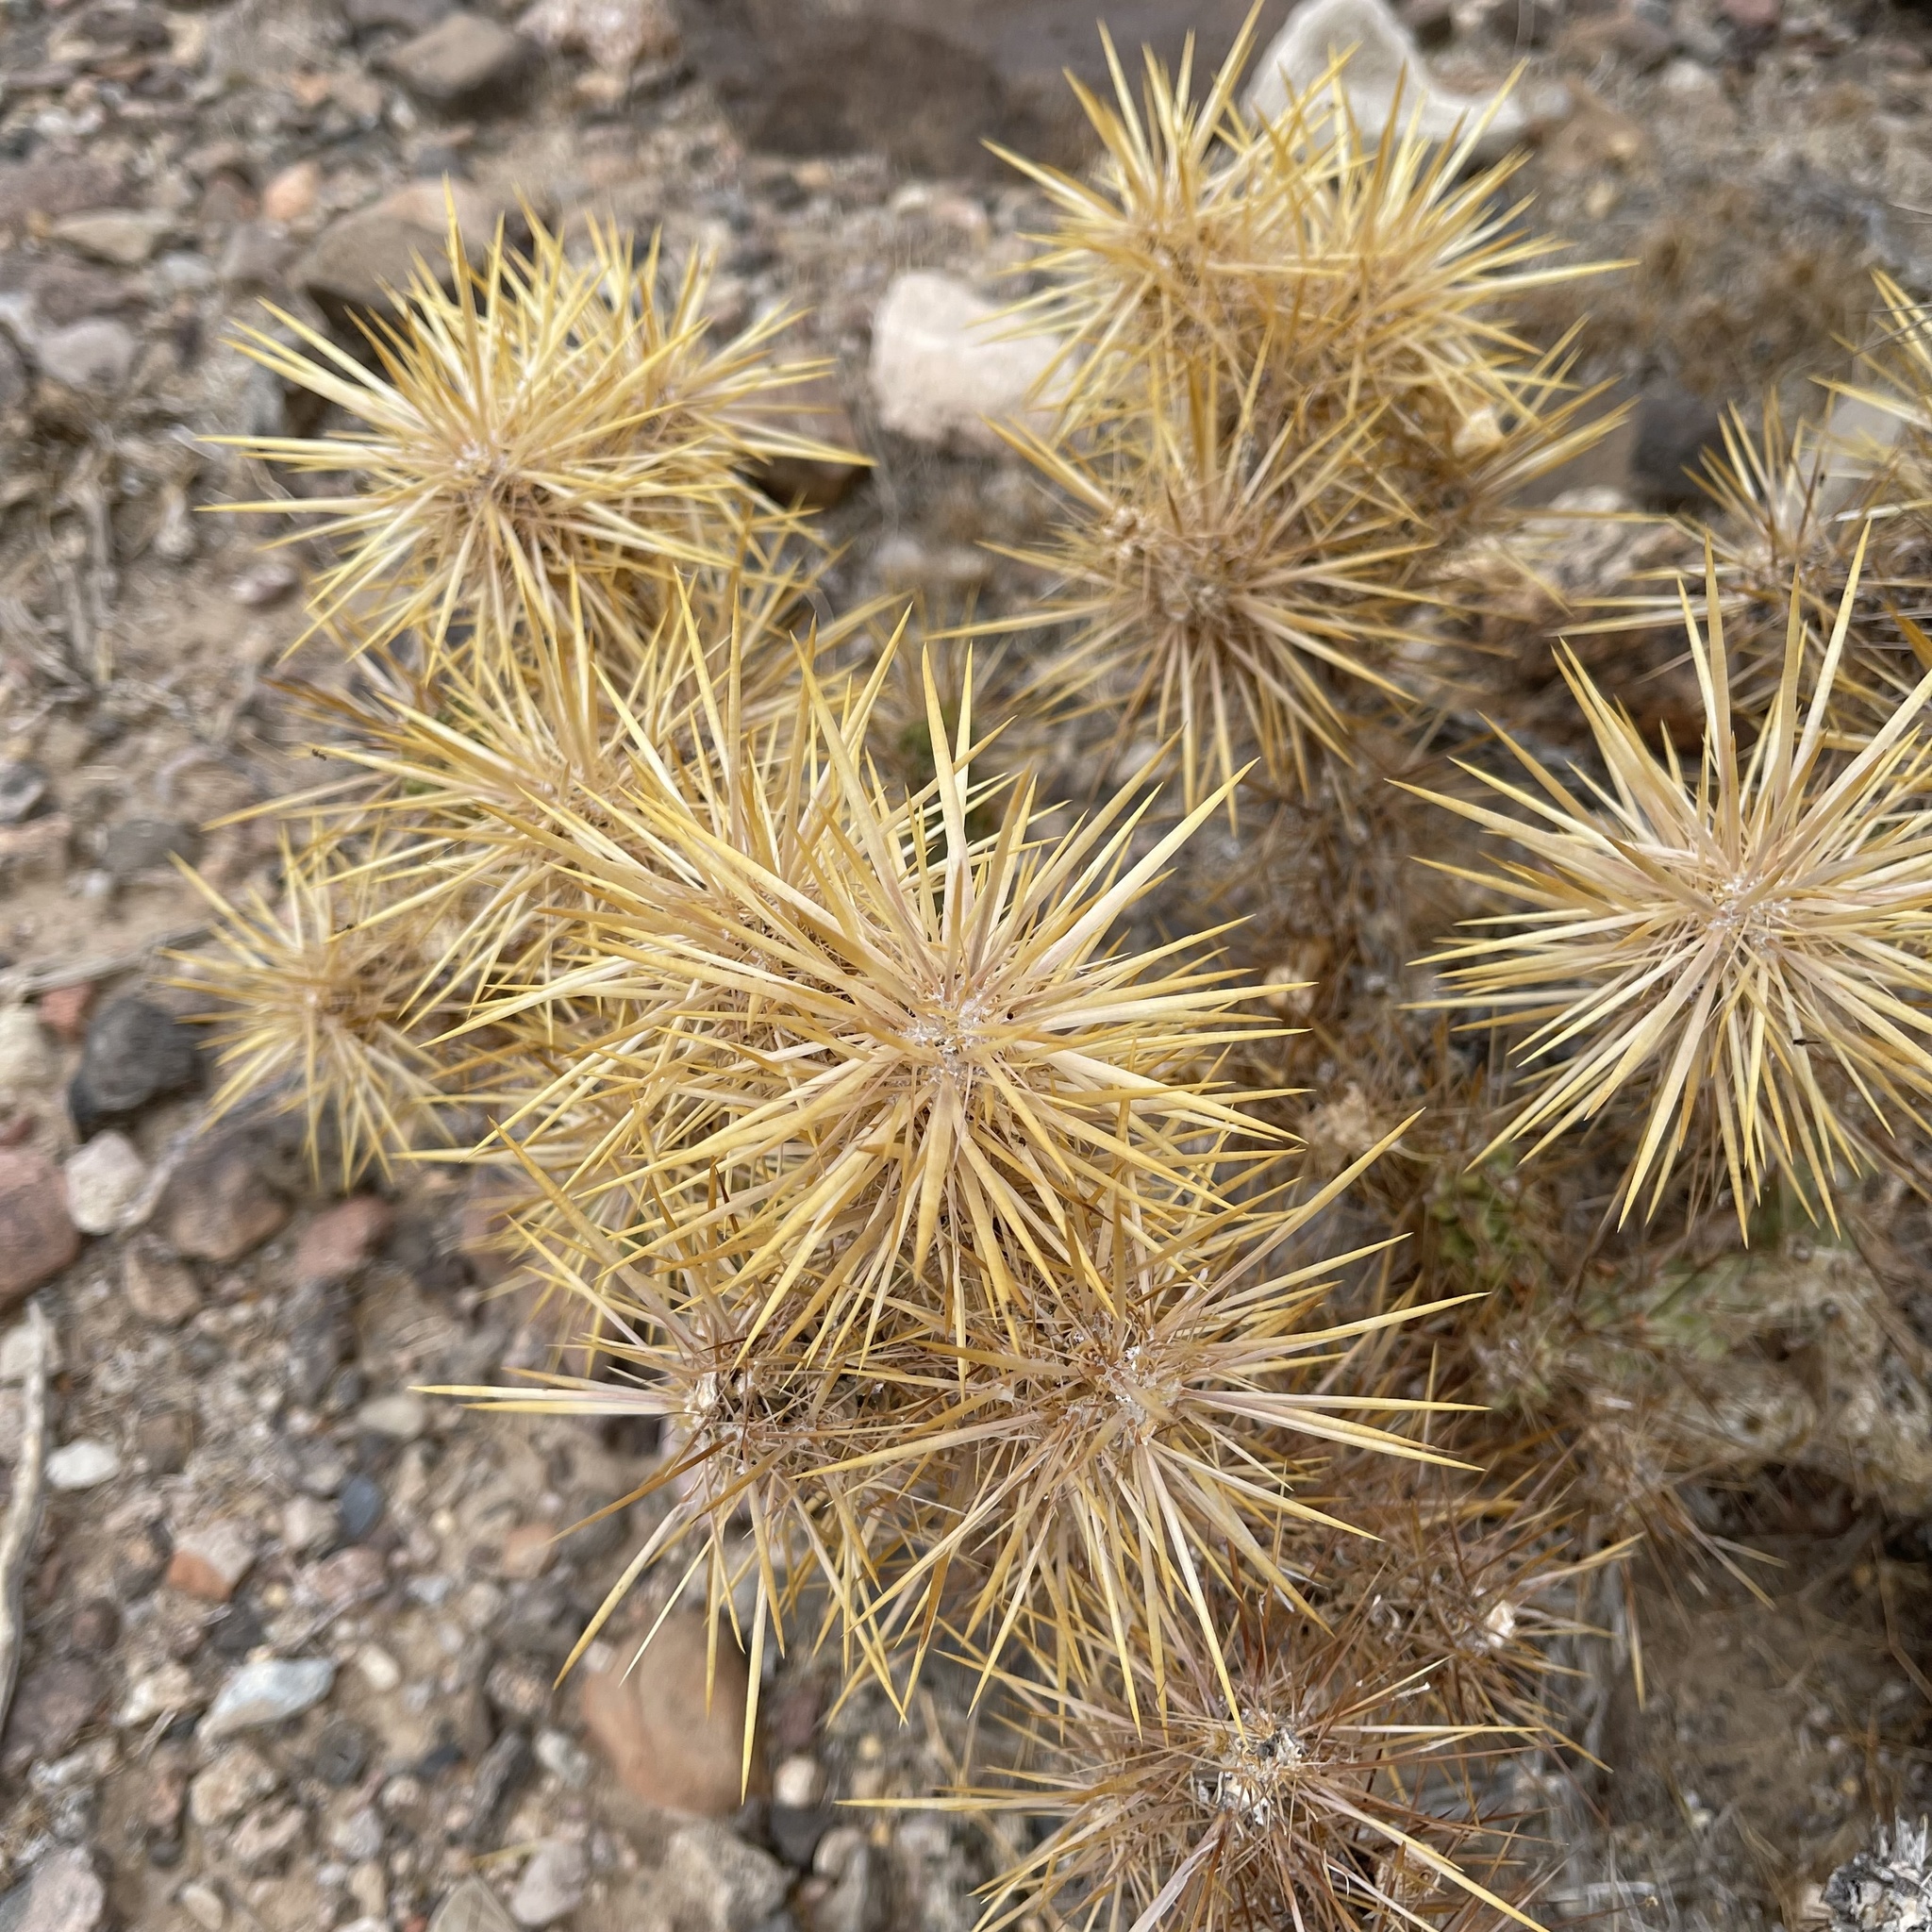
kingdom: Plantae
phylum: Tracheophyta
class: Magnoliopsida
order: Caryophyllales
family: Cactaceae
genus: Cylindropuntia
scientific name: Cylindropuntia echinocarpa
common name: Ground cholla
